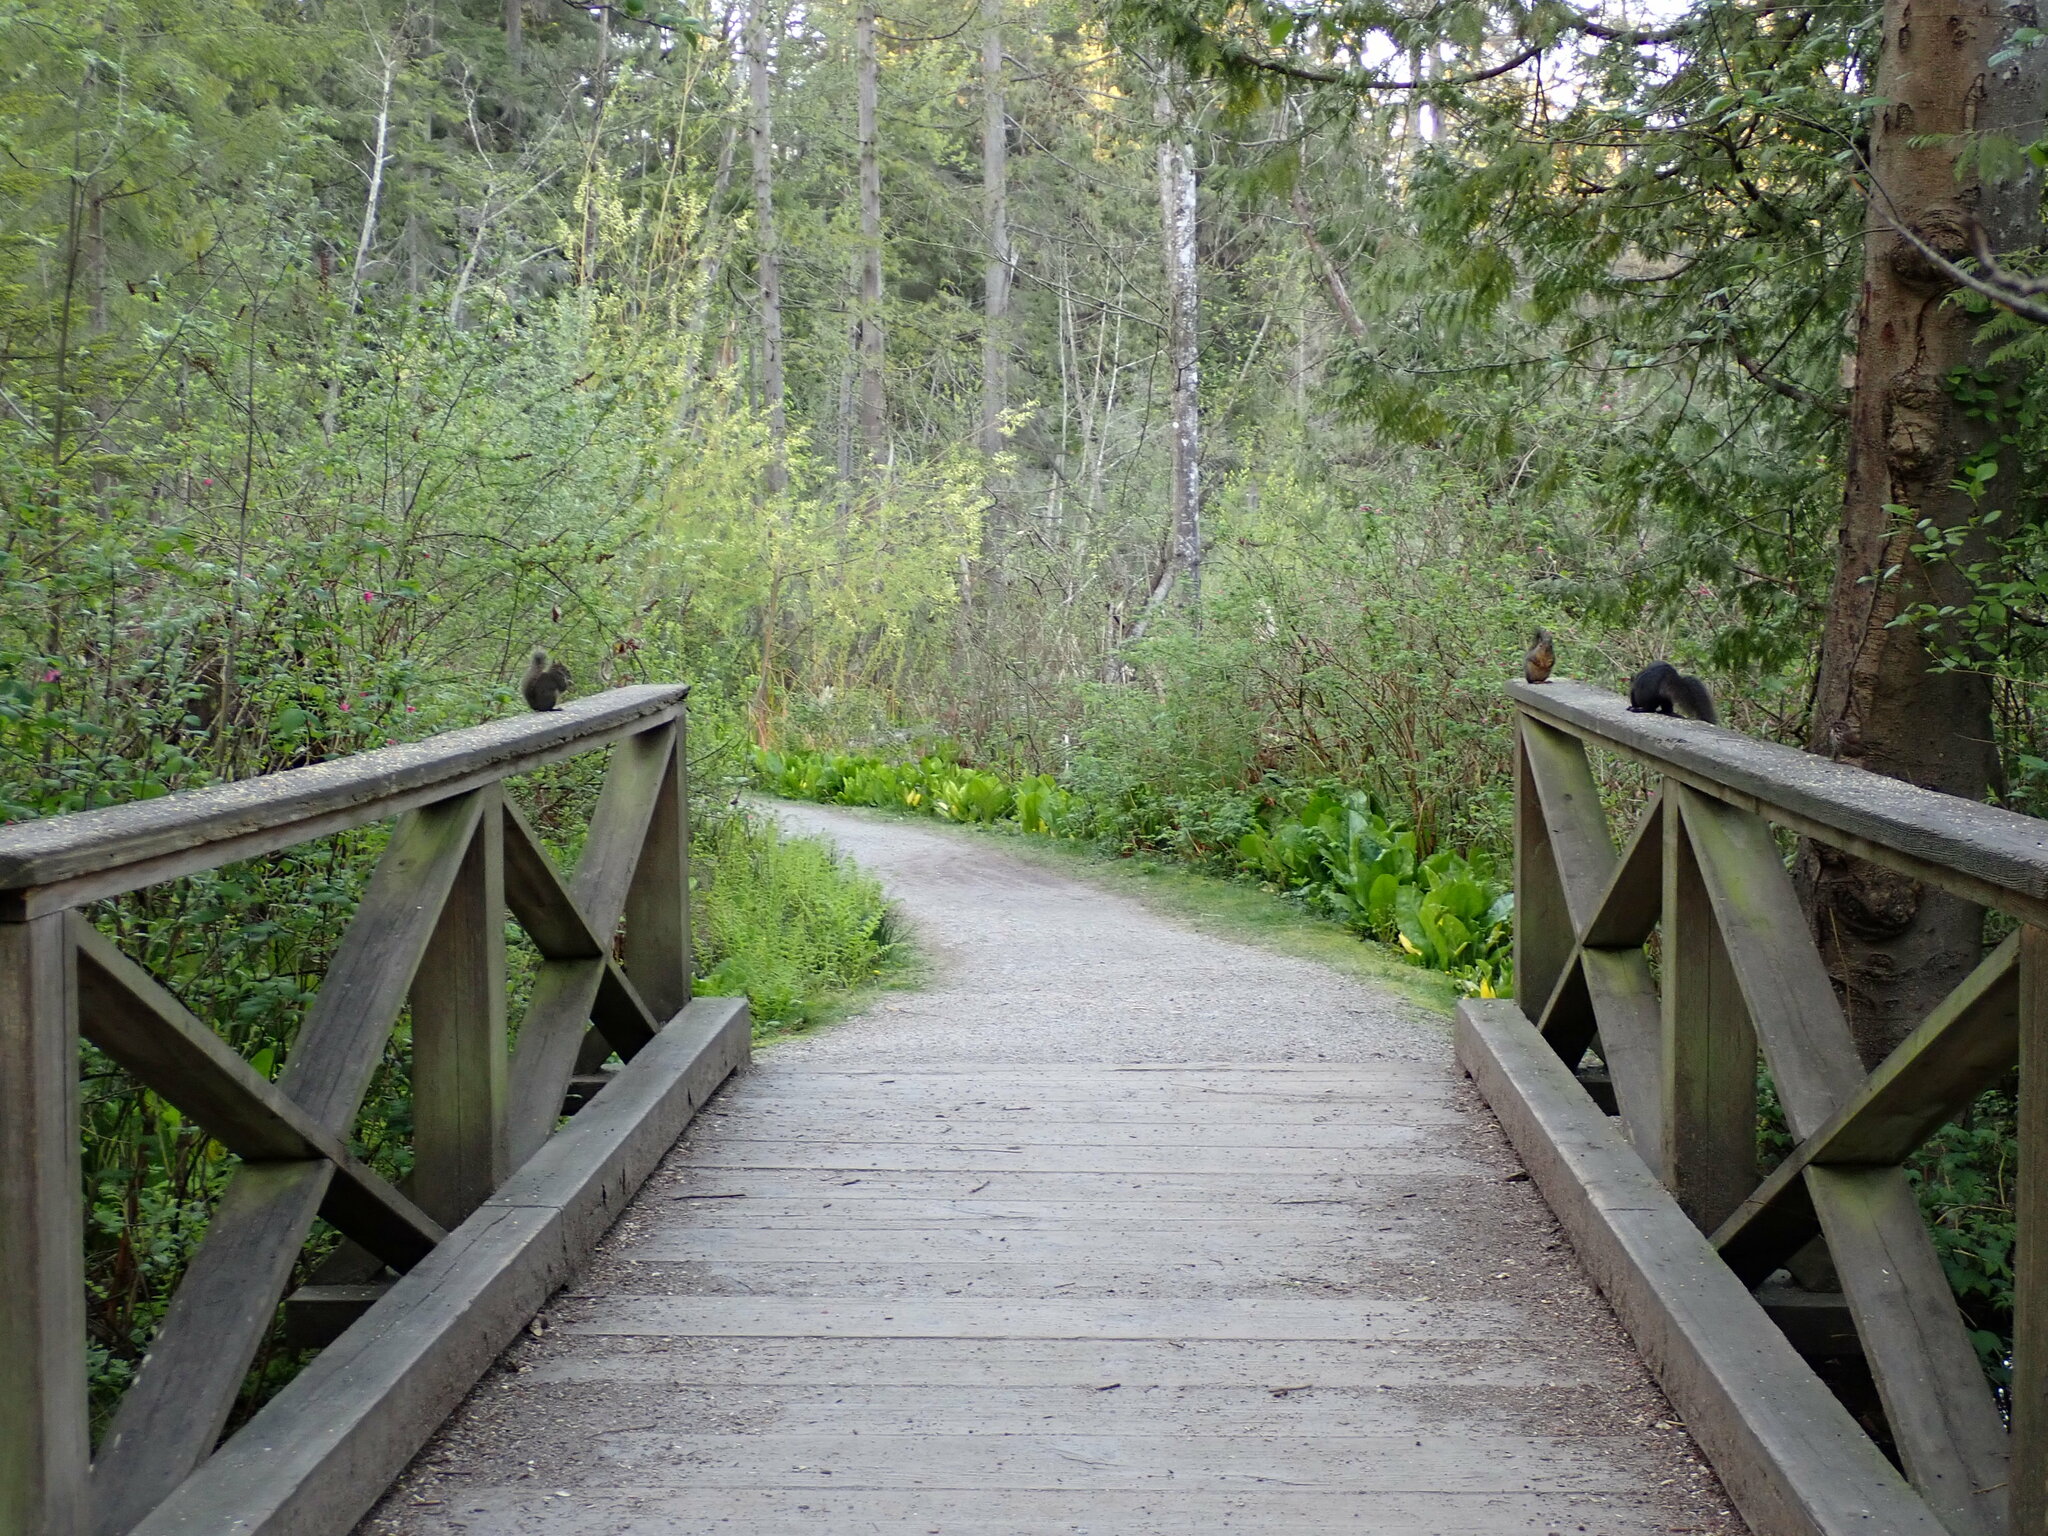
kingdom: Animalia
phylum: Chordata
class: Mammalia
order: Rodentia
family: Sciuridae
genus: Tamiasciurus
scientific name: Tamiasciurus douglasii
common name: Douglas's squirrel
